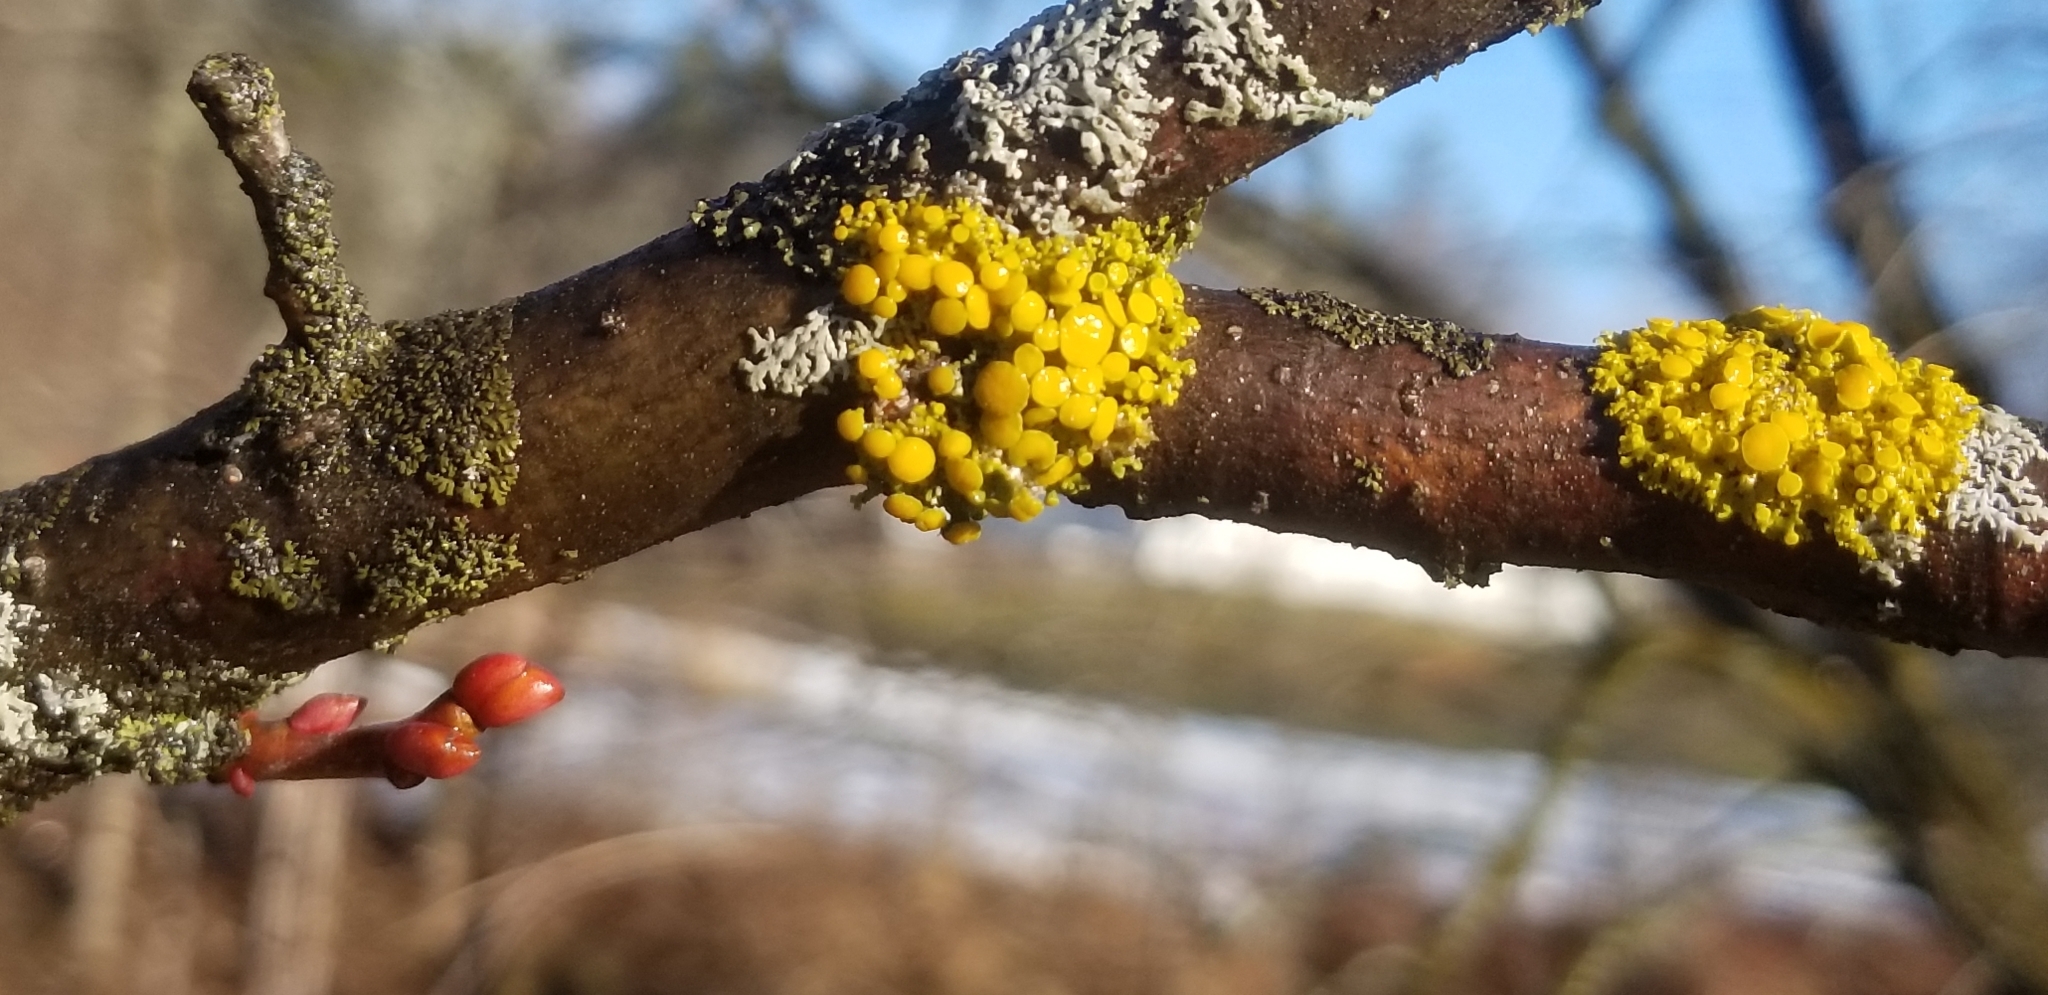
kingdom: Fungi
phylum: Ascomycota
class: Lecanoromycetes
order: Teloschistales
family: Teloschistaceae
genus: Polycauliona
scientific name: Polycauliona polycarpa
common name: Pin-cushion sunburst lichen
